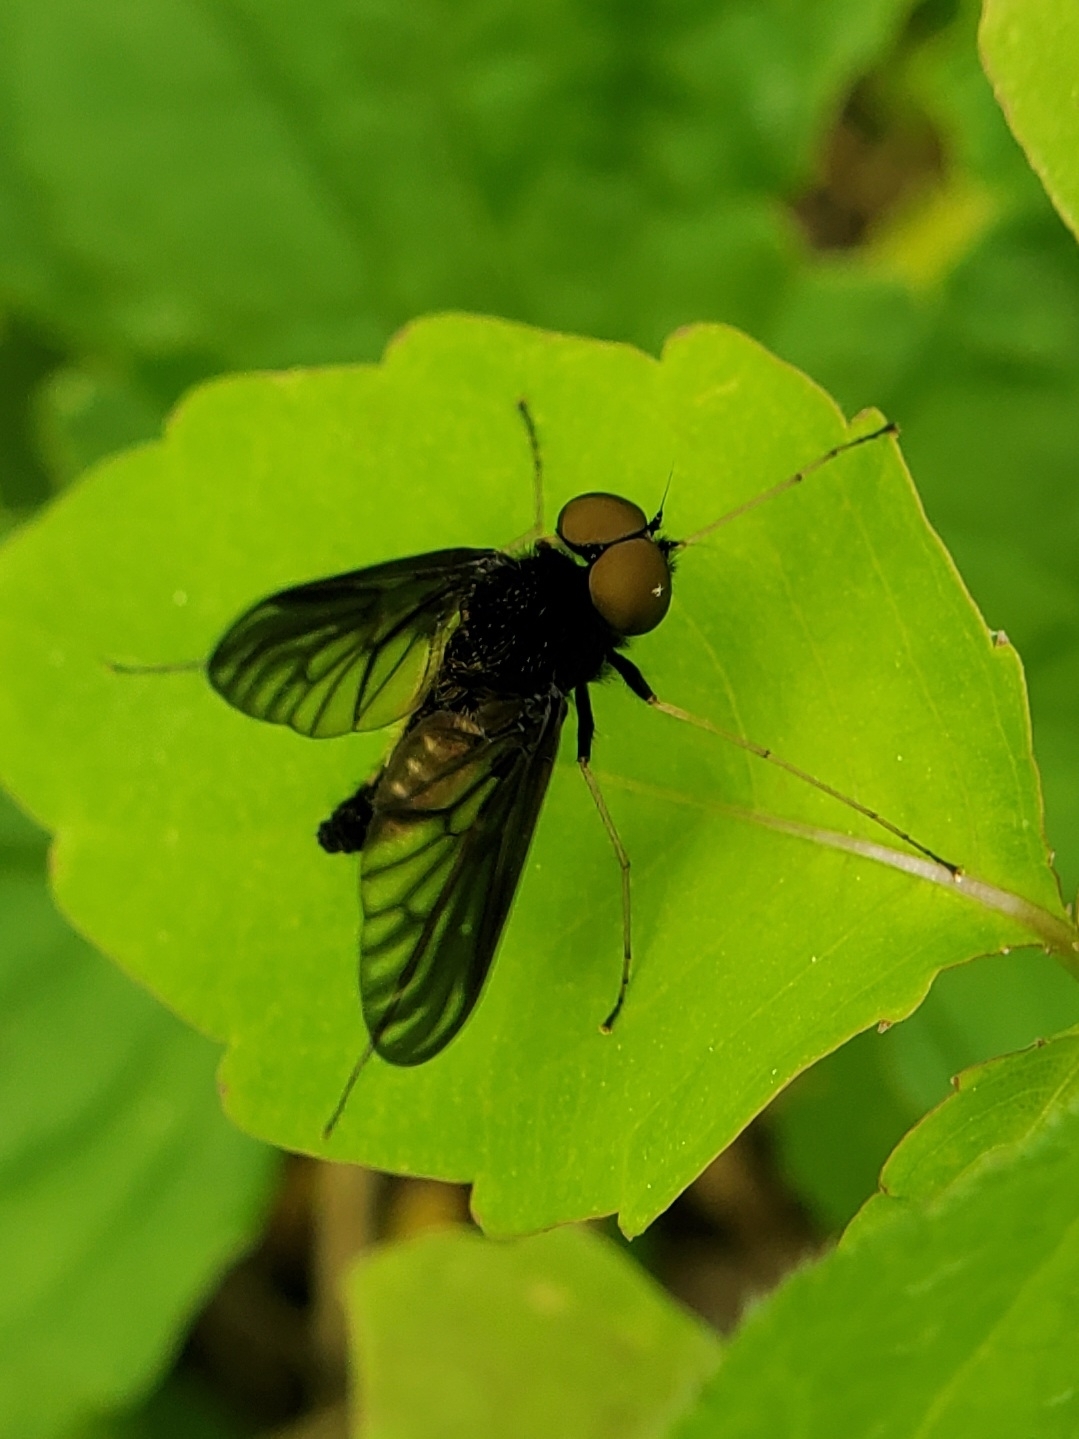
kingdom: Animalia
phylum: Arthropoda
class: Insecta
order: Diptera
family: Rhagionidae
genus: Chrysopilus
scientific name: Chrysopilus connexus
